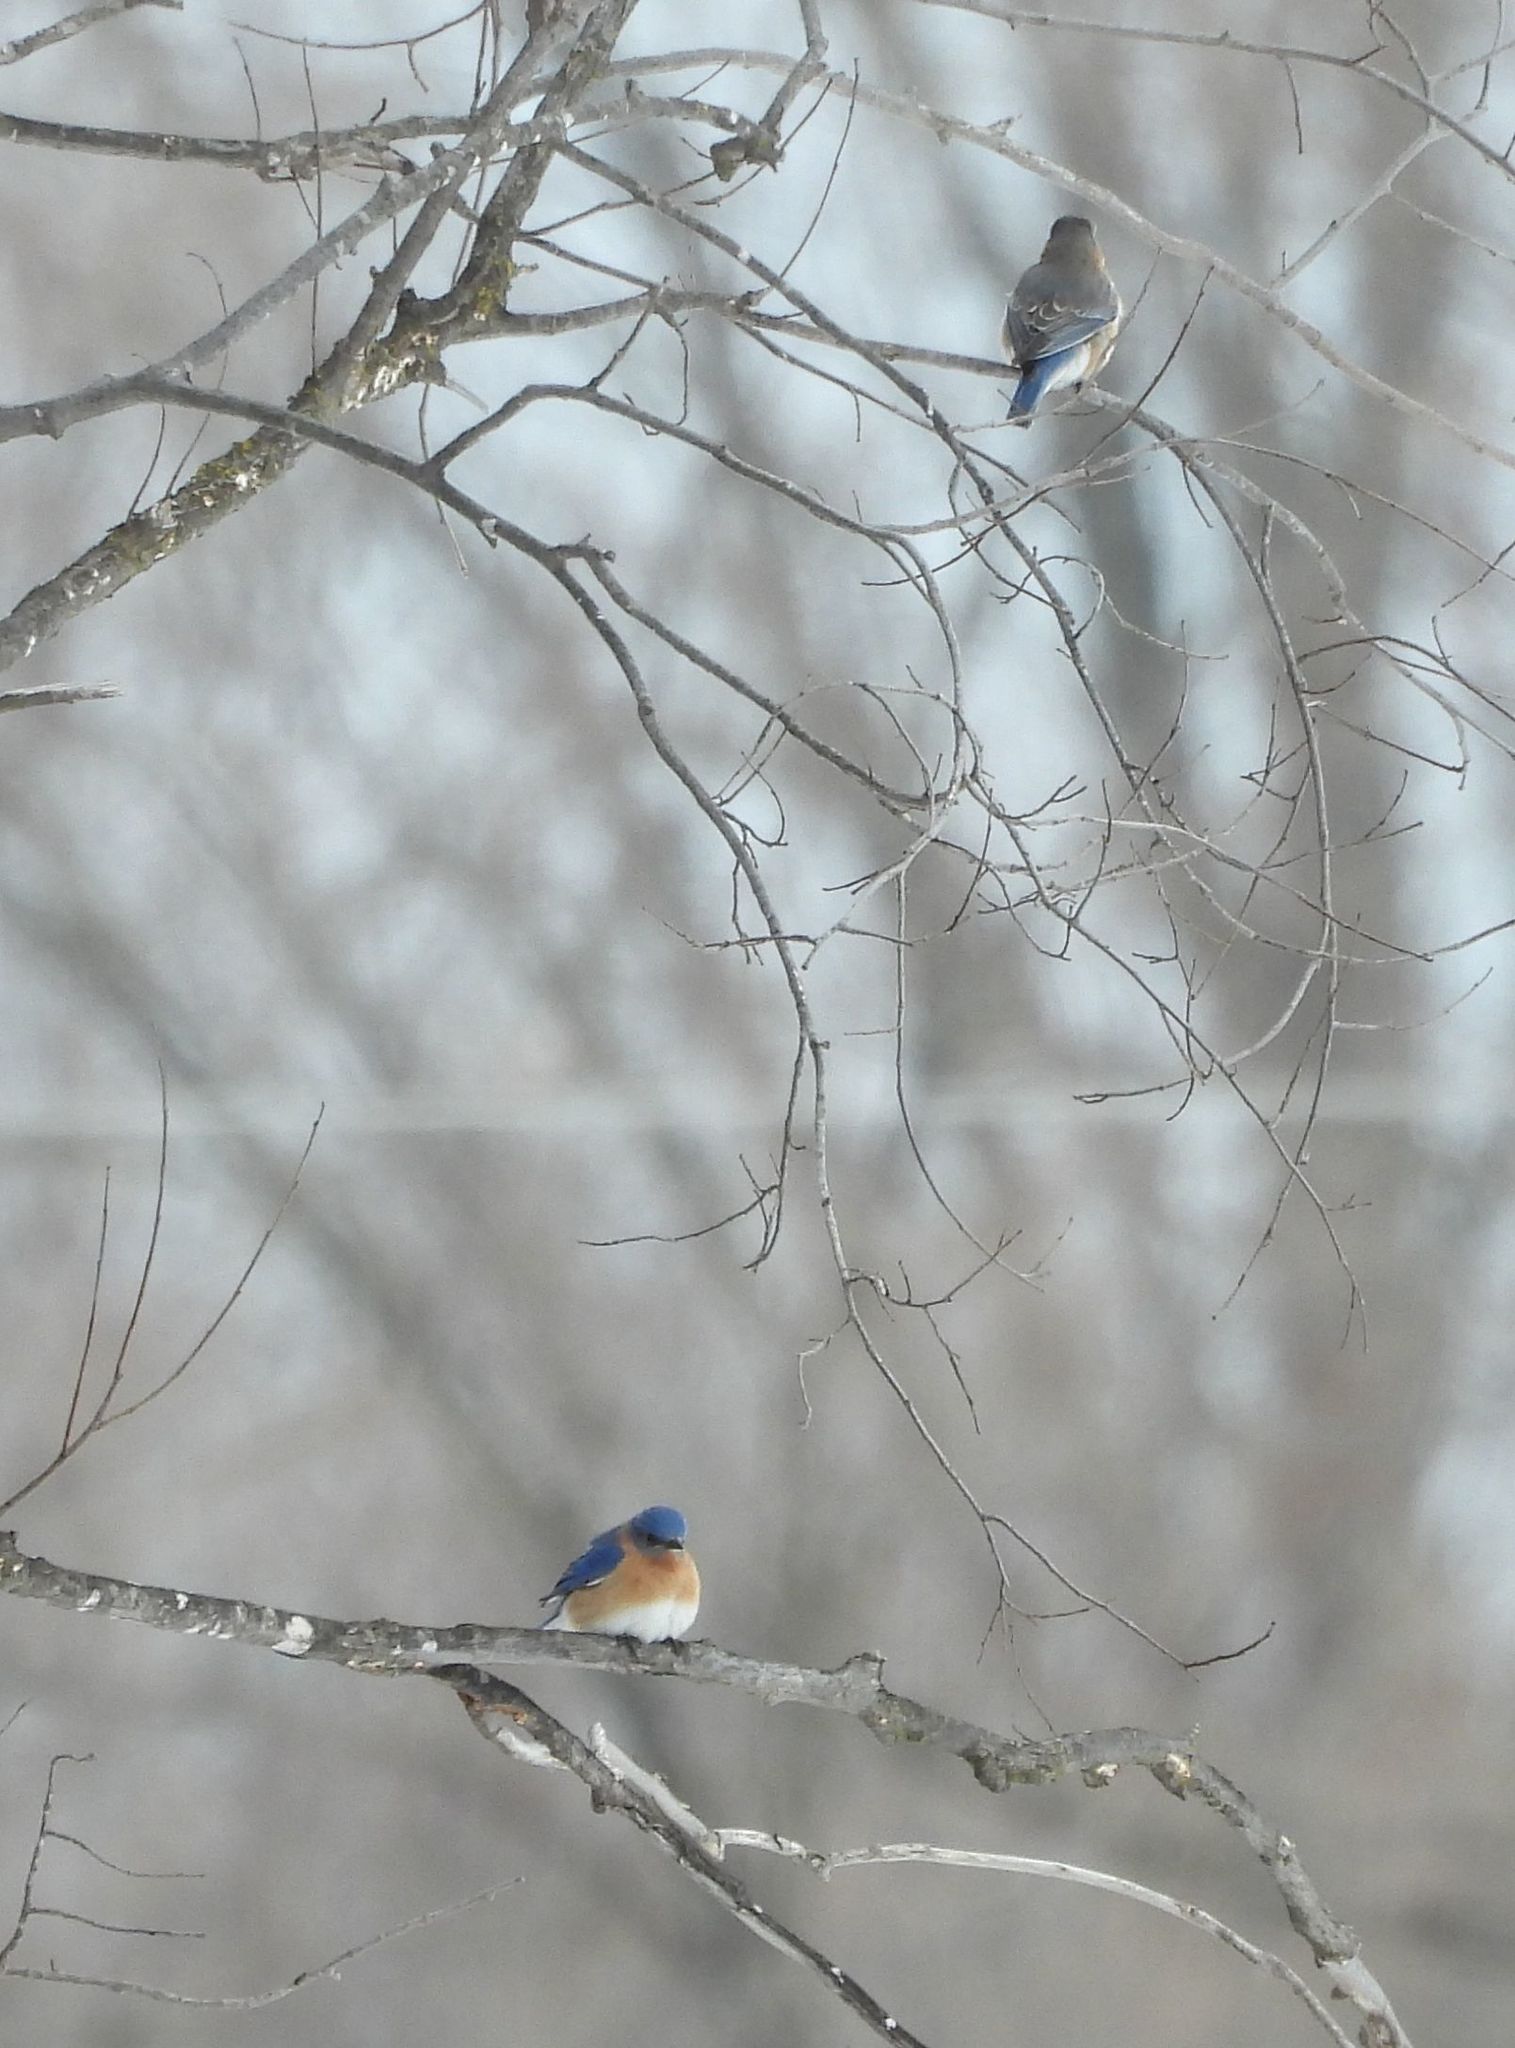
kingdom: Animalia
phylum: Chordata
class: Aves
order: Passeriformes
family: Turdidae
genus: Sialia
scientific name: Sialia sialis
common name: Eastern bluebird
